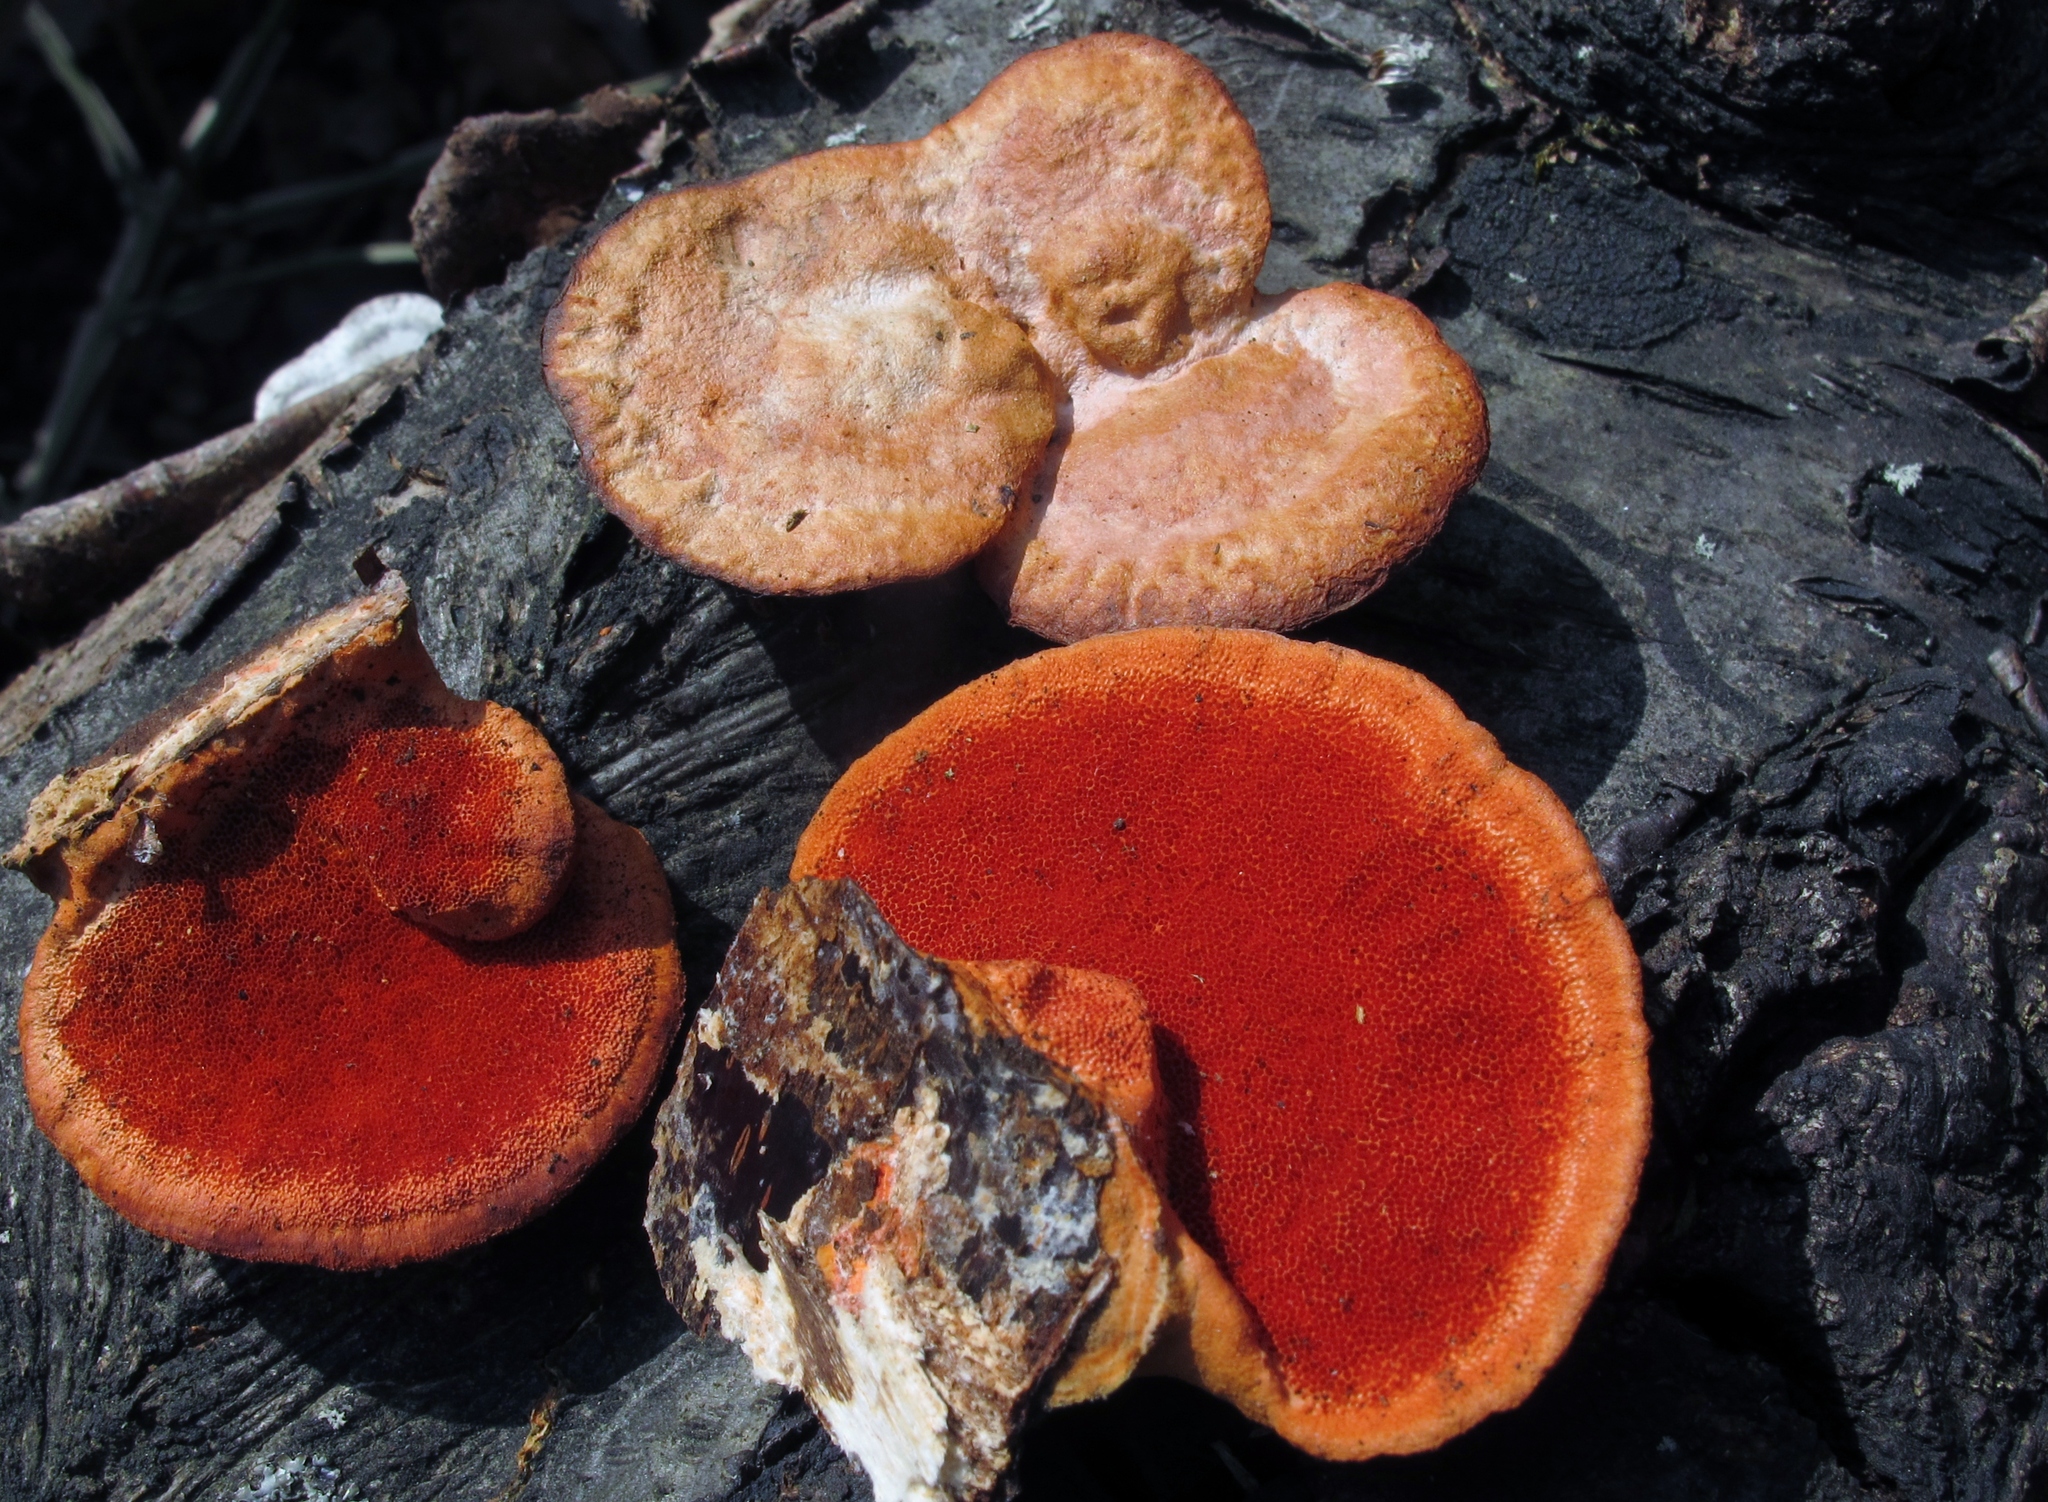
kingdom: Fungi
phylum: Basidiomycota
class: Agaricomycetes
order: Polyporales
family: Polyporaceae
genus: Trametes
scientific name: Trametes cinnabarina
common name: Northern cinnabar polypore
